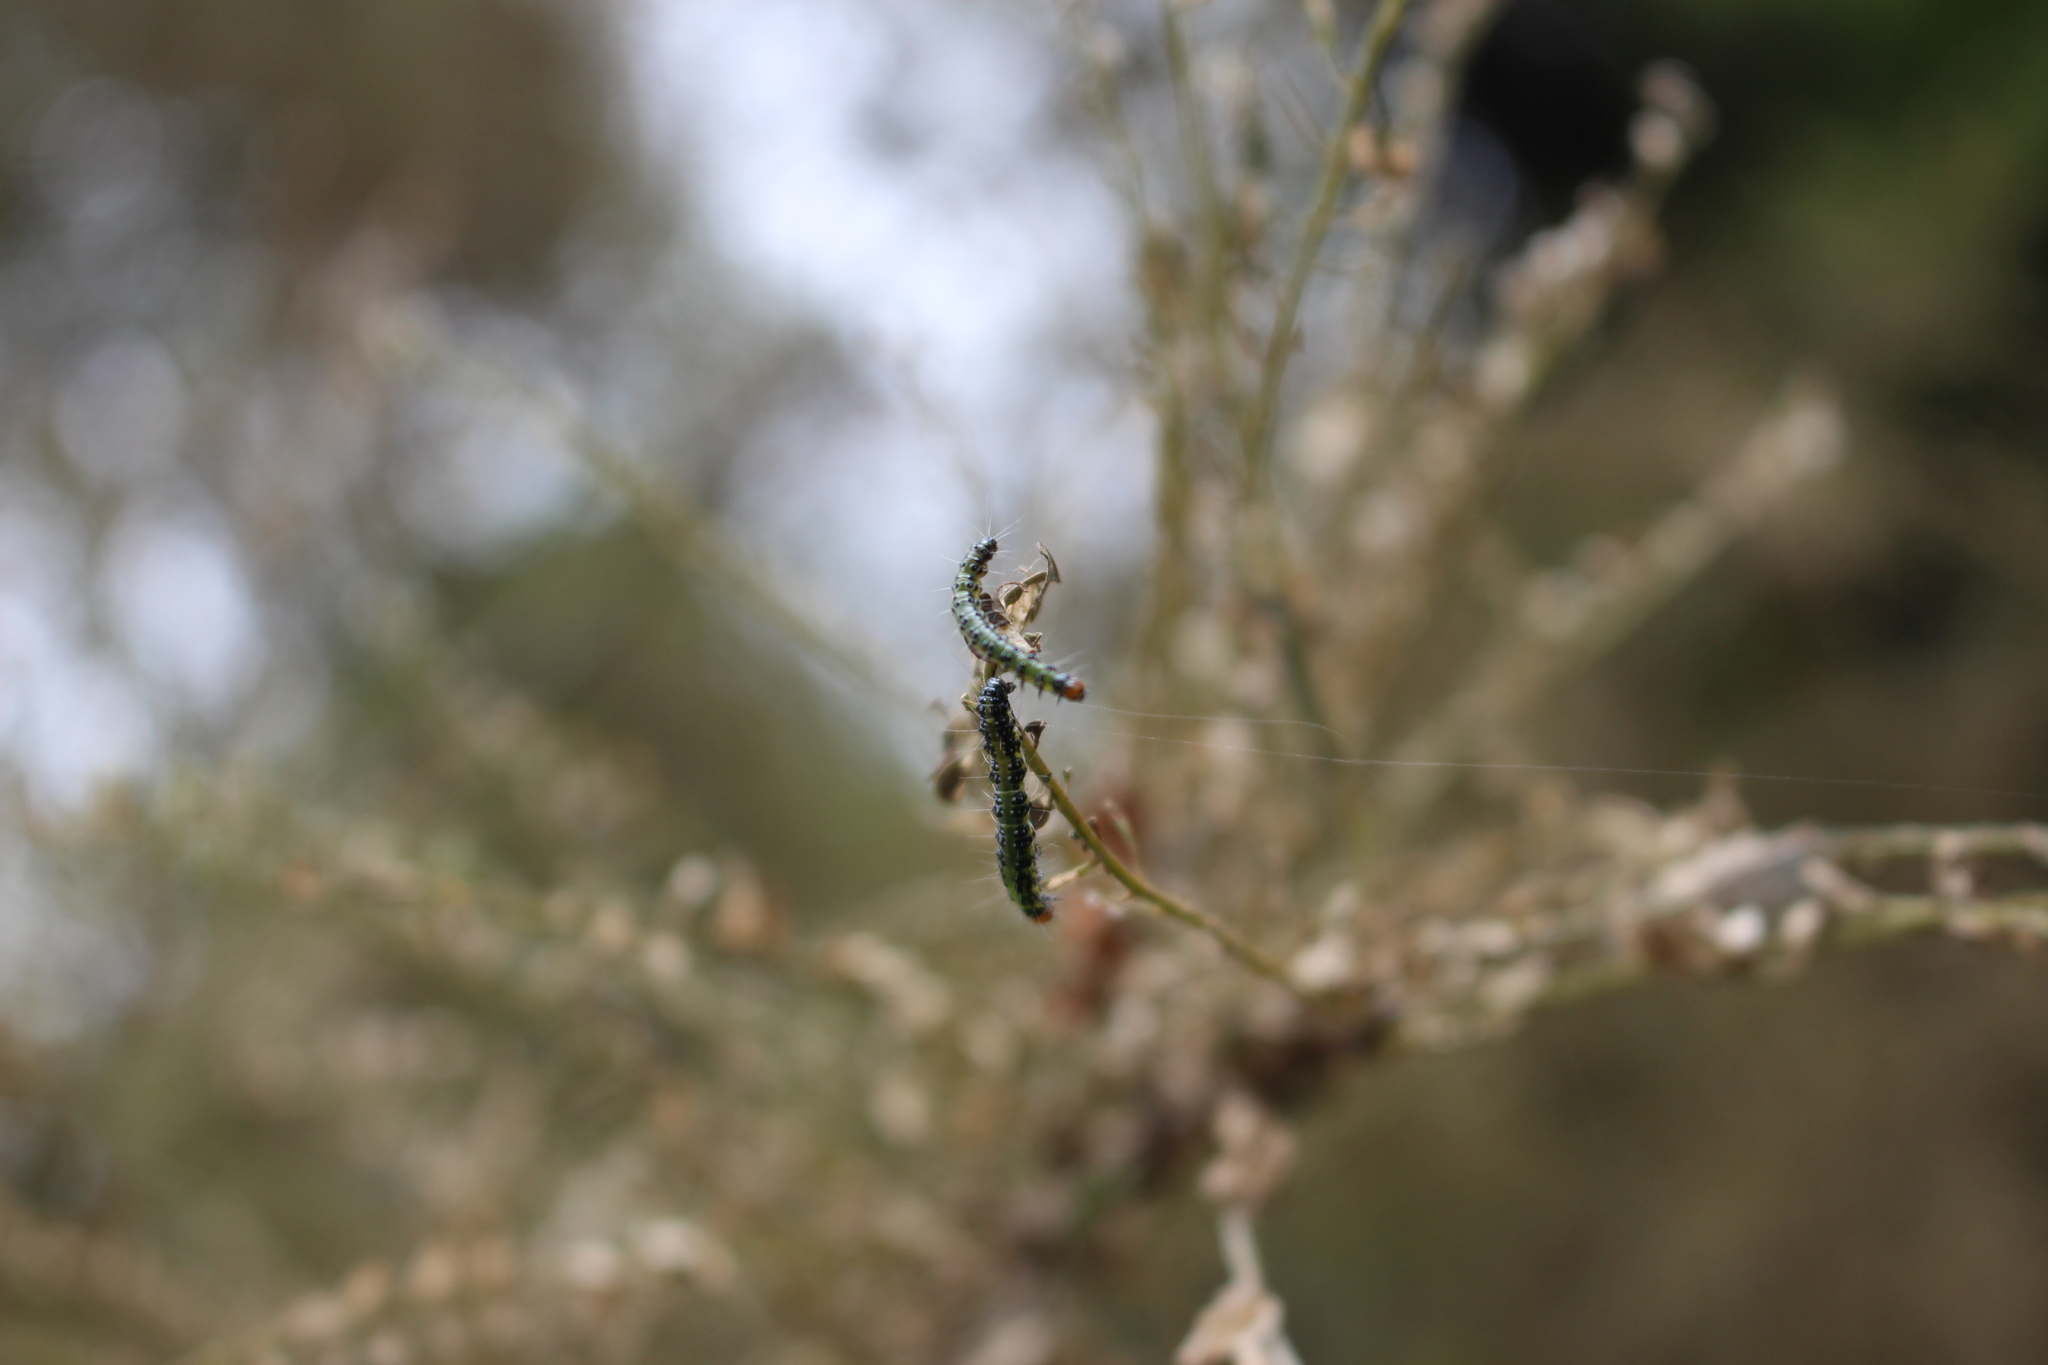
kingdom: Animalia
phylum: Arthropoda
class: Insecta
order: Lepidoptera
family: Crambidae
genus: Uresiphita
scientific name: Uresiphita
